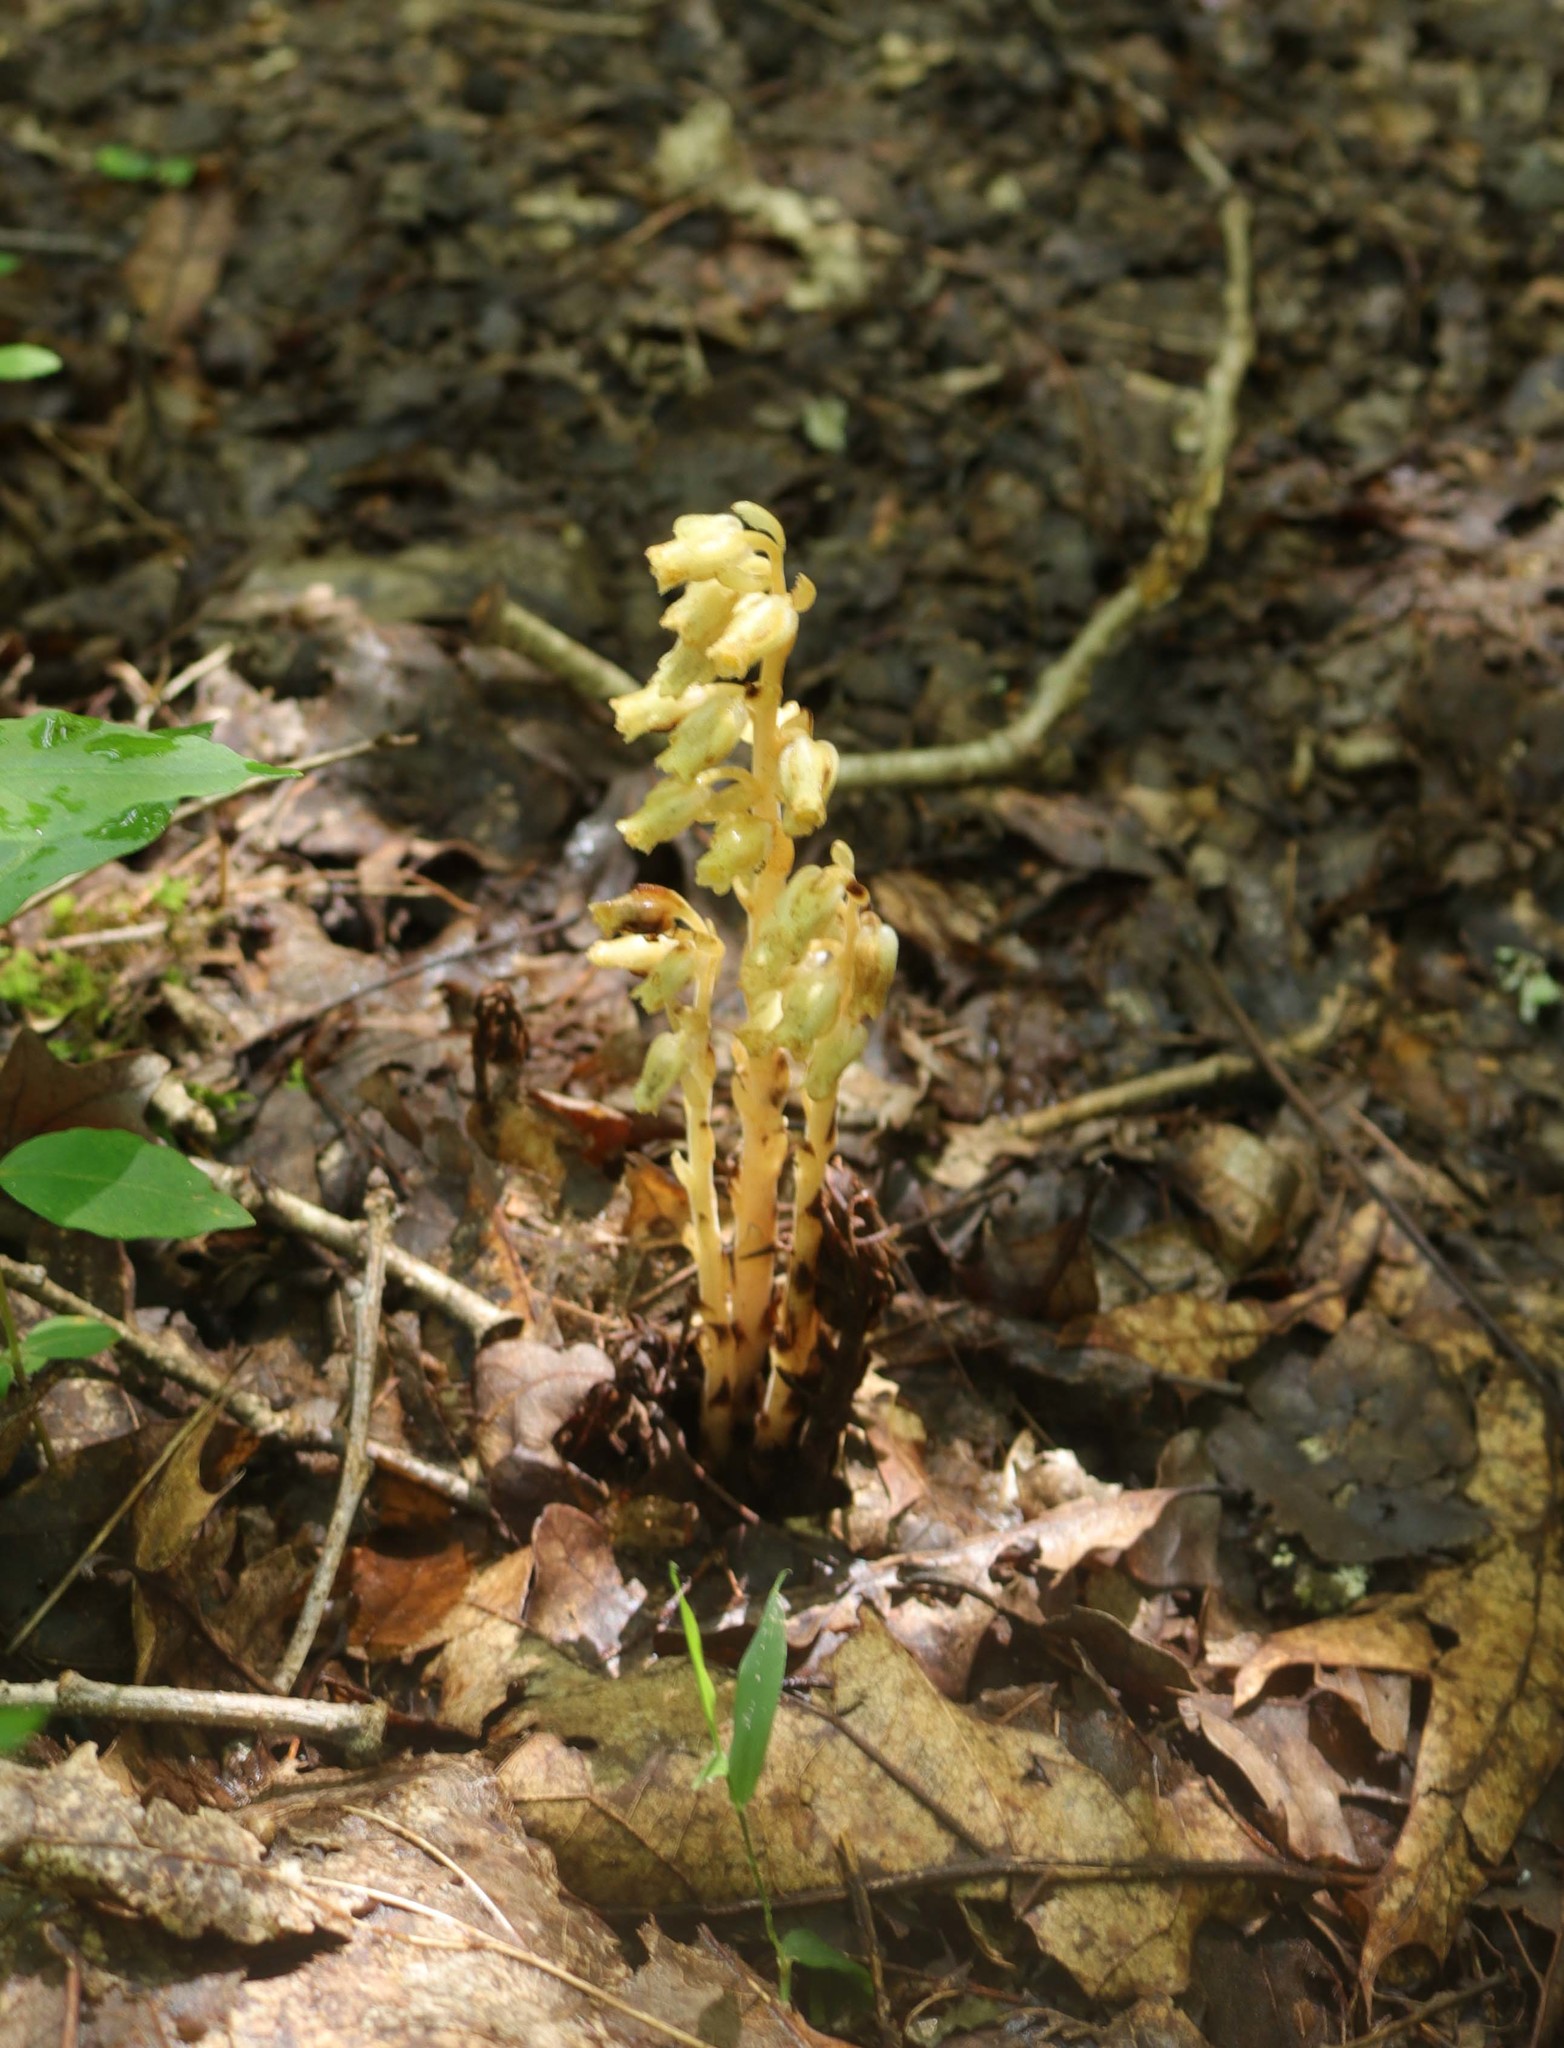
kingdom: Plantae
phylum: Tracheophyta
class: Magnoliopsida
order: Ericales
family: Ericaceae
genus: Hypopitys
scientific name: Hypopitys monotropa
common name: Yellow bird's-nest
